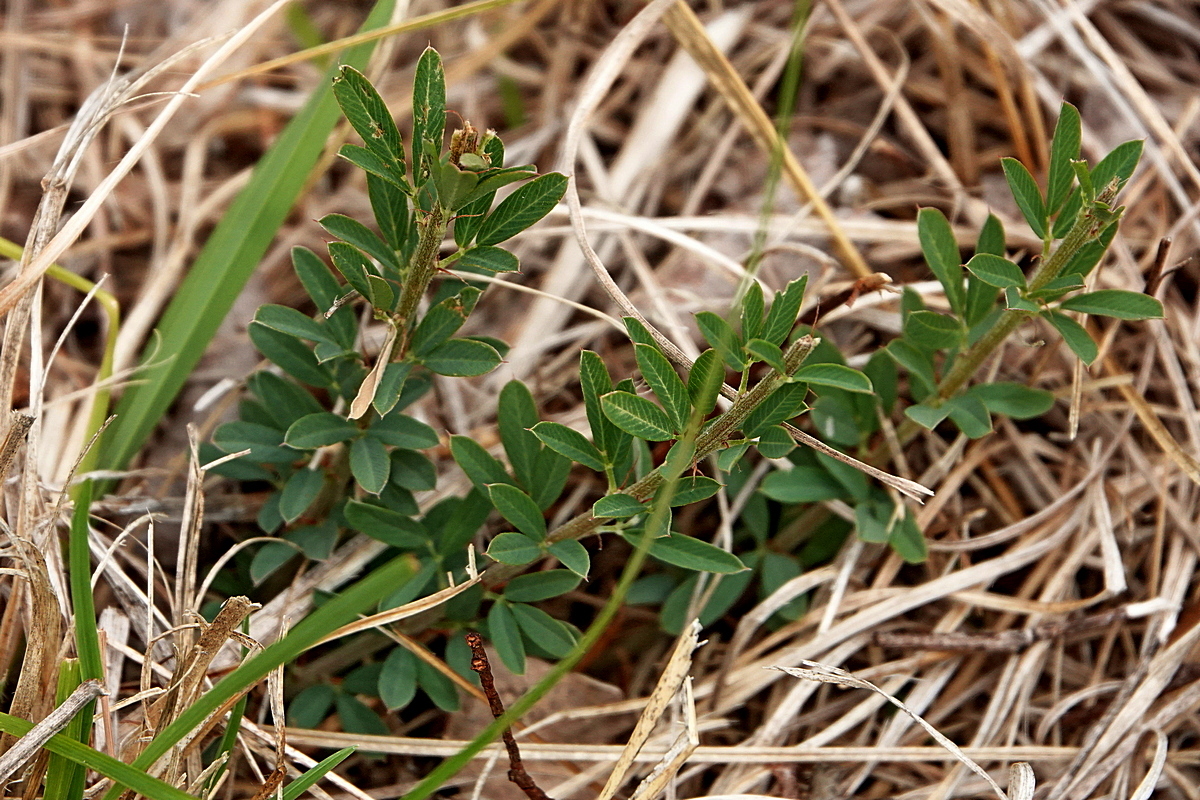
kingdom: Plantae
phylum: Tracheophyta
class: Magnoliopsida
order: Fabales
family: Fabaceae
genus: Lespedeza
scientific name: Lespedeza juncea
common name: Siberian lespedeza
